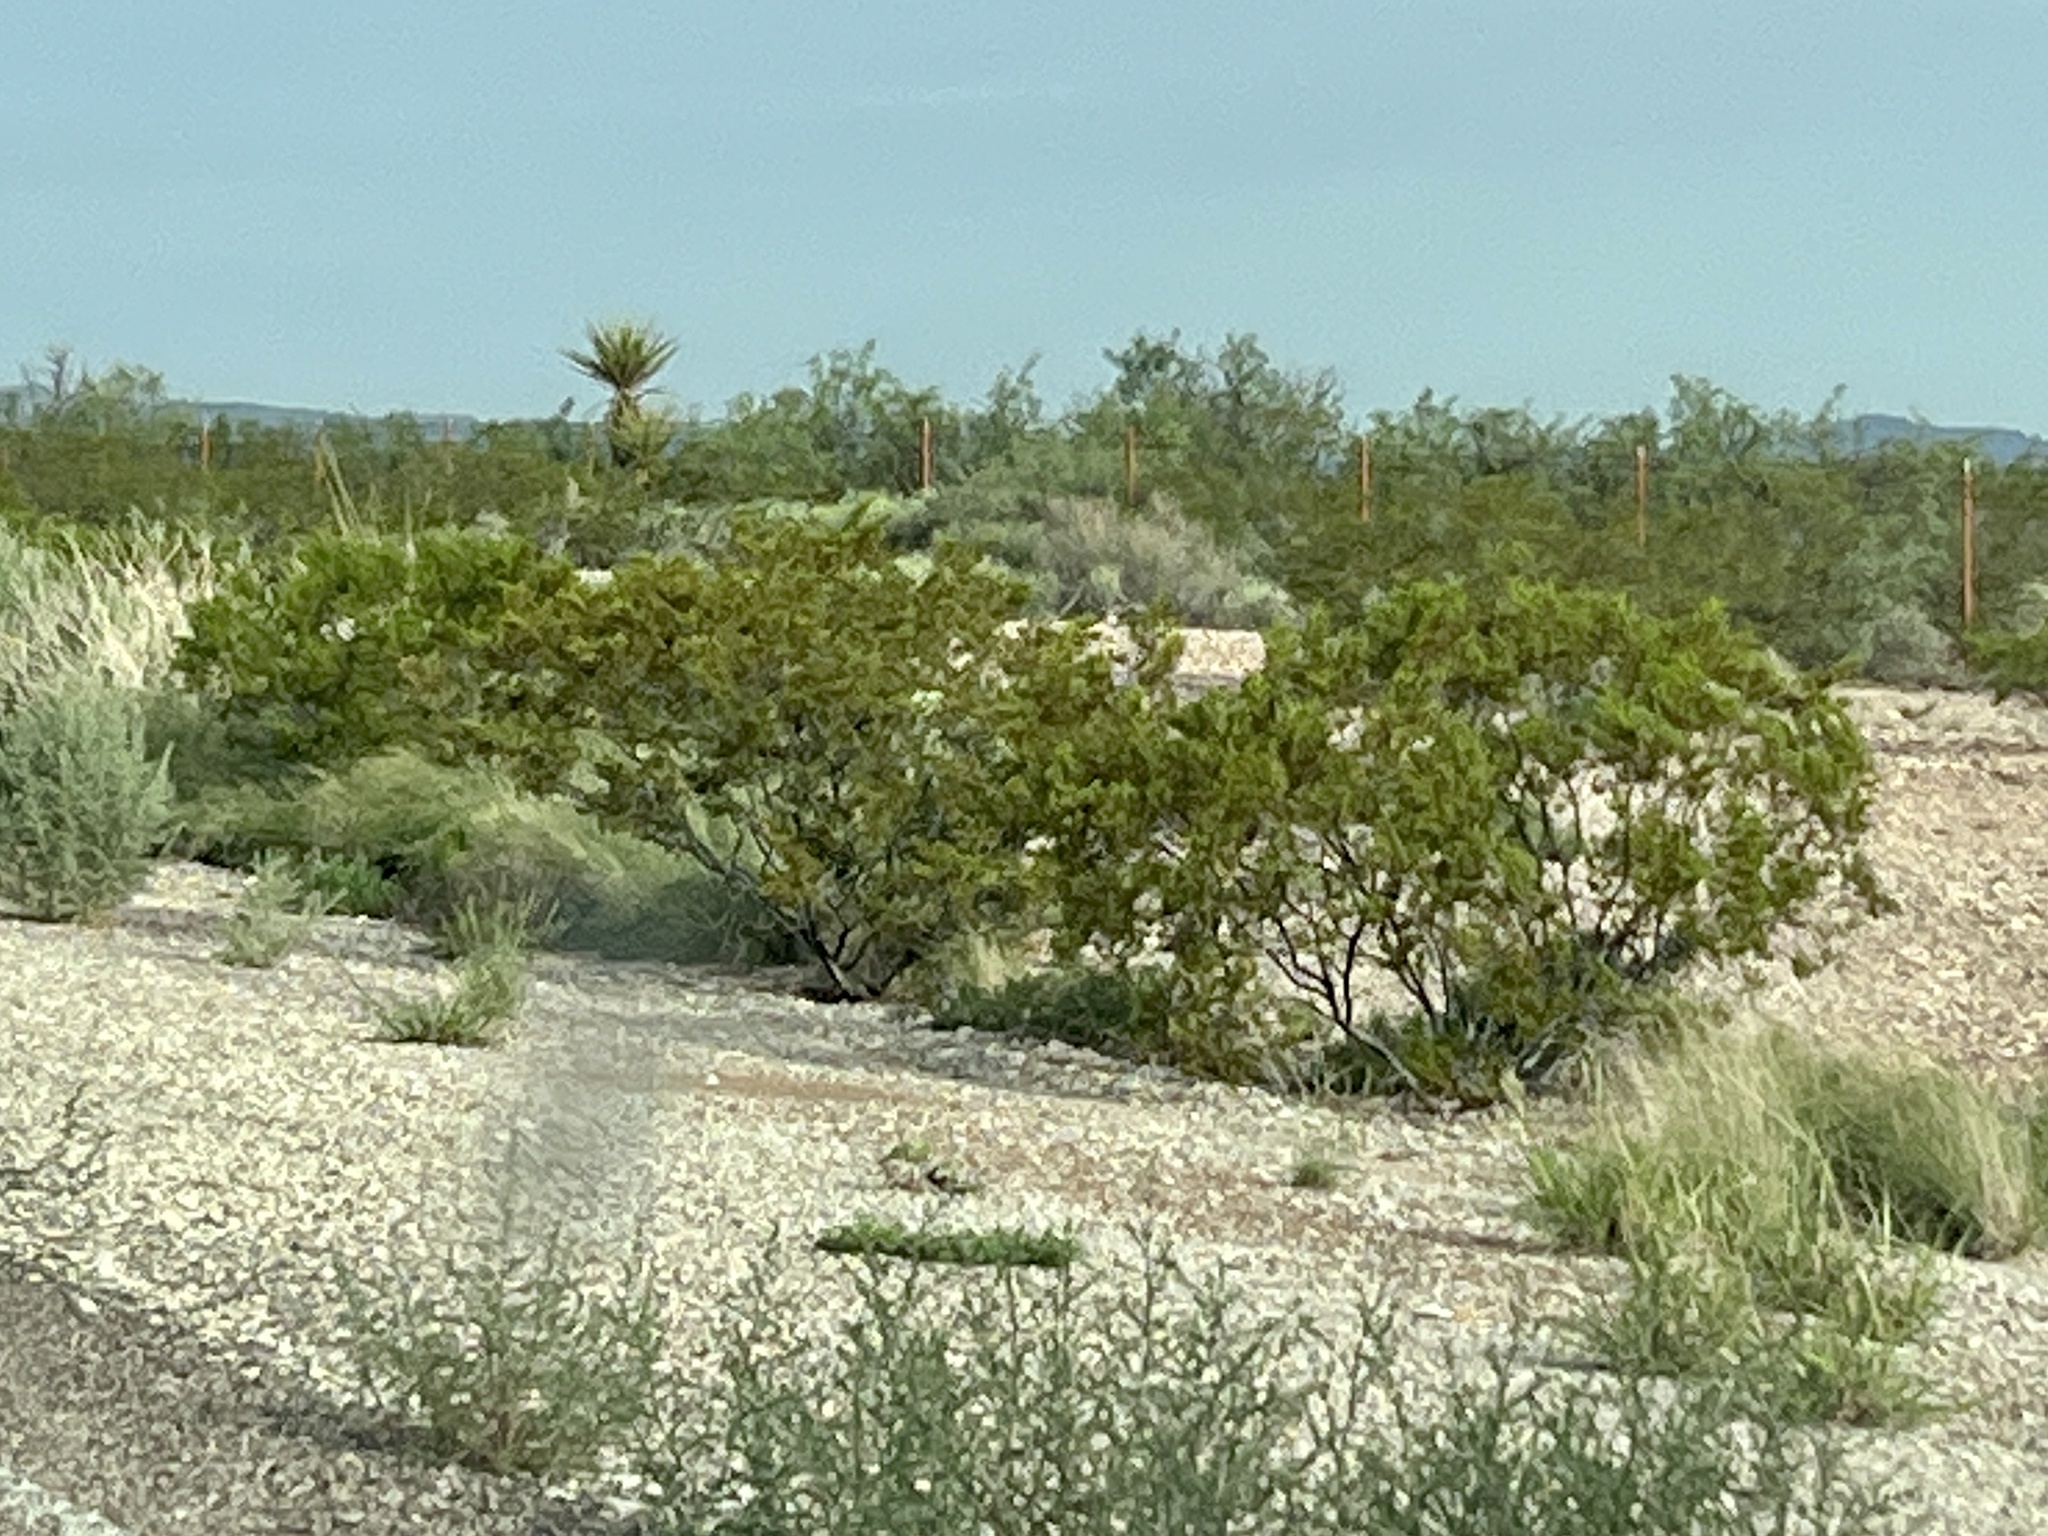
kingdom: Plantae
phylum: Tracheophyta
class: Magnoliopsida
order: Zygophyllales
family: Zygophyllaceae
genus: Larrea
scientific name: Larrea tridentata
